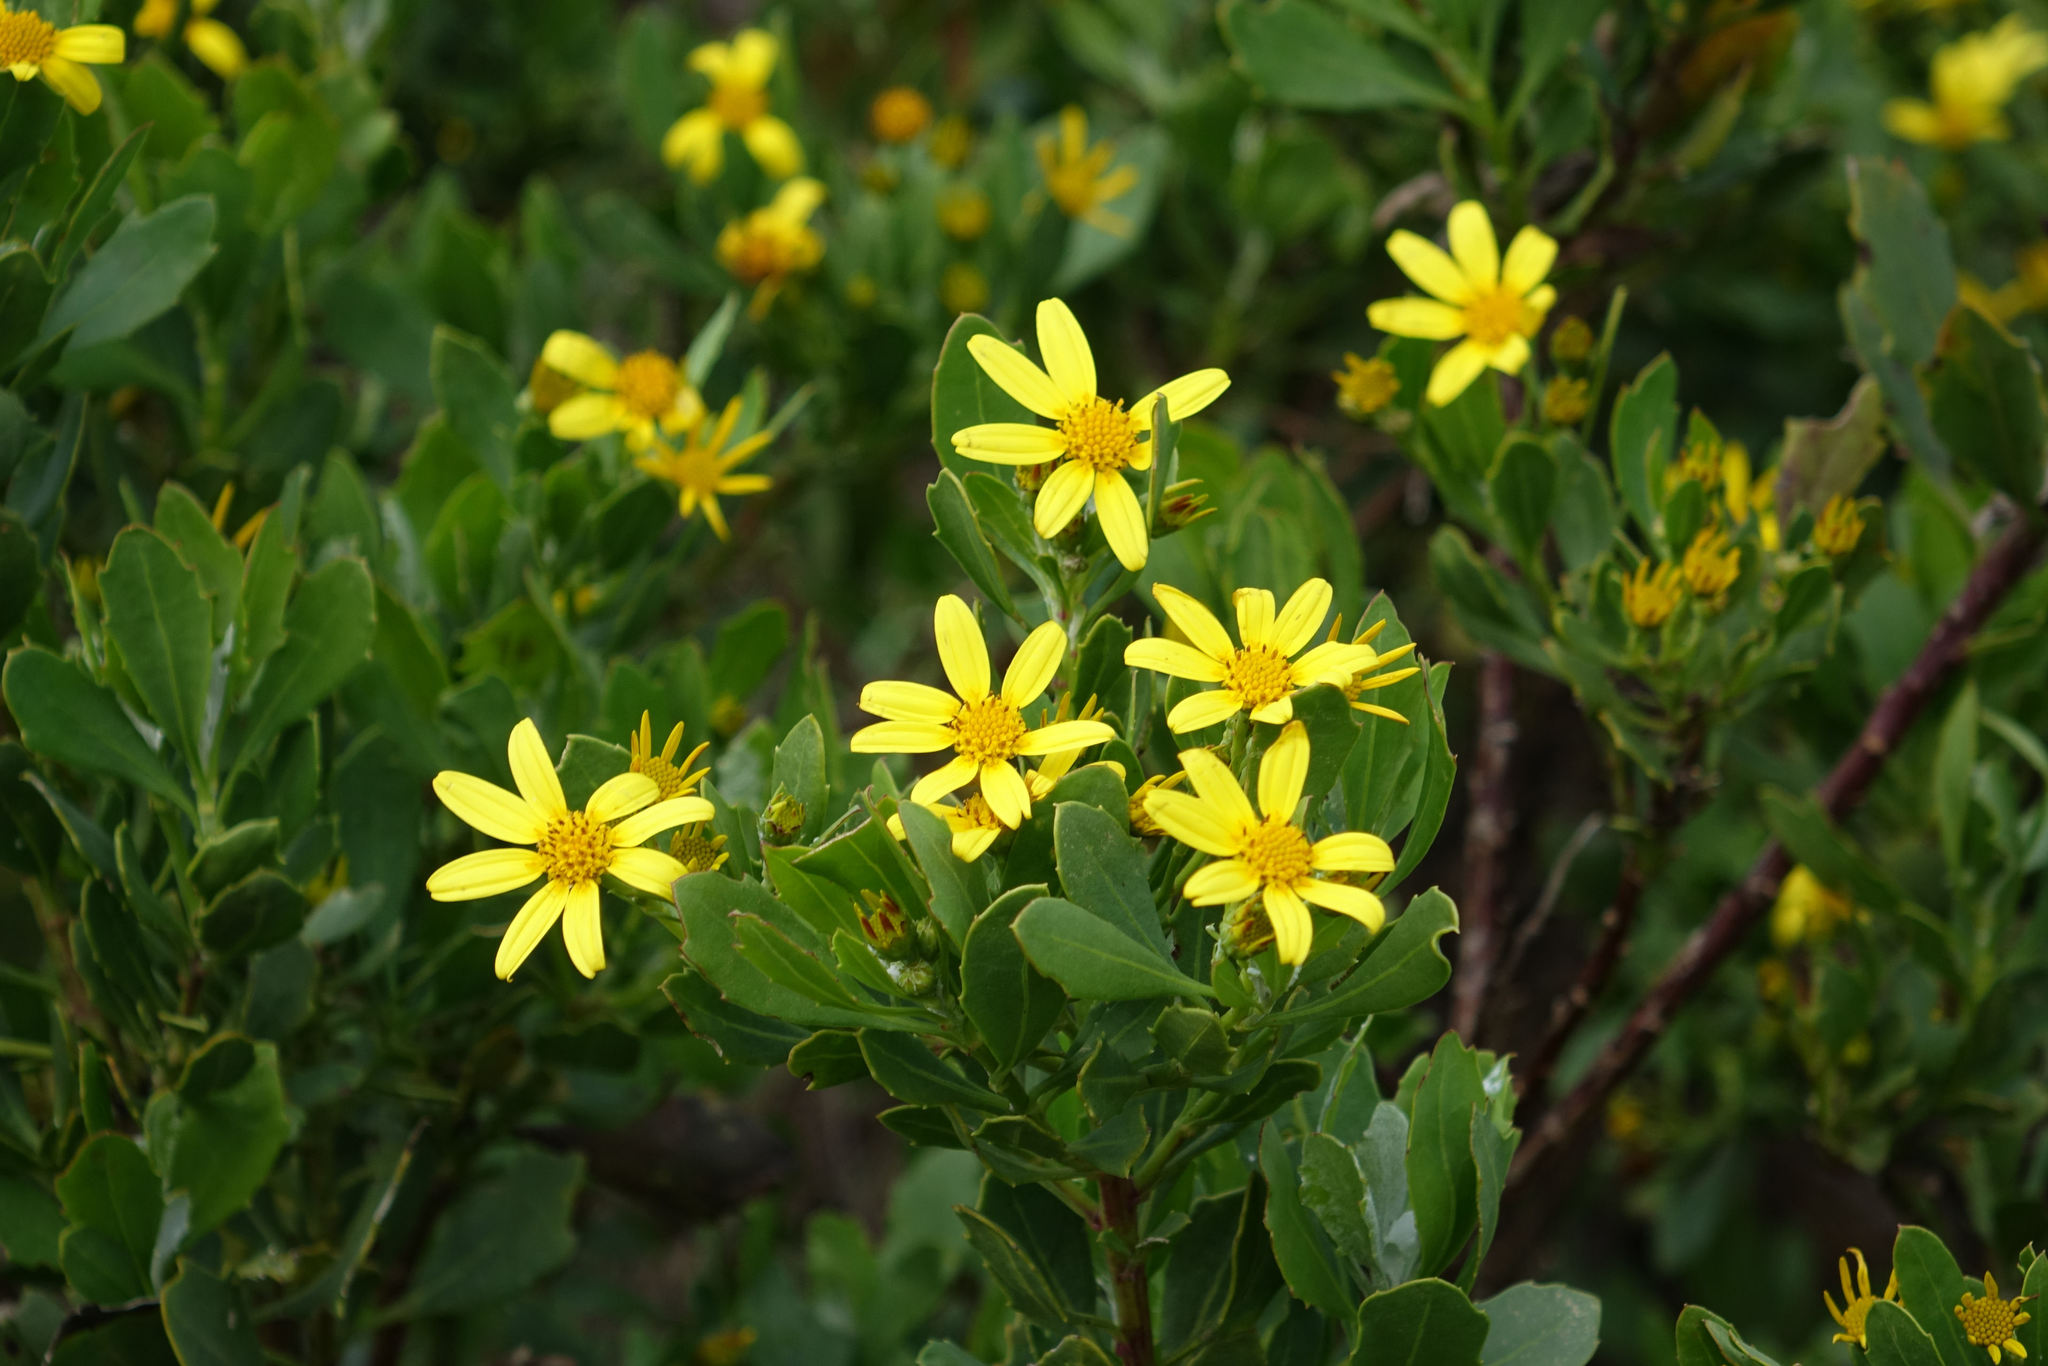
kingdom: Plantae
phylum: Tracheophyta
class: Magnoliopsida
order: Asterales
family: Asteraceae
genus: Osteospermum
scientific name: Osteospermum moniliferum
